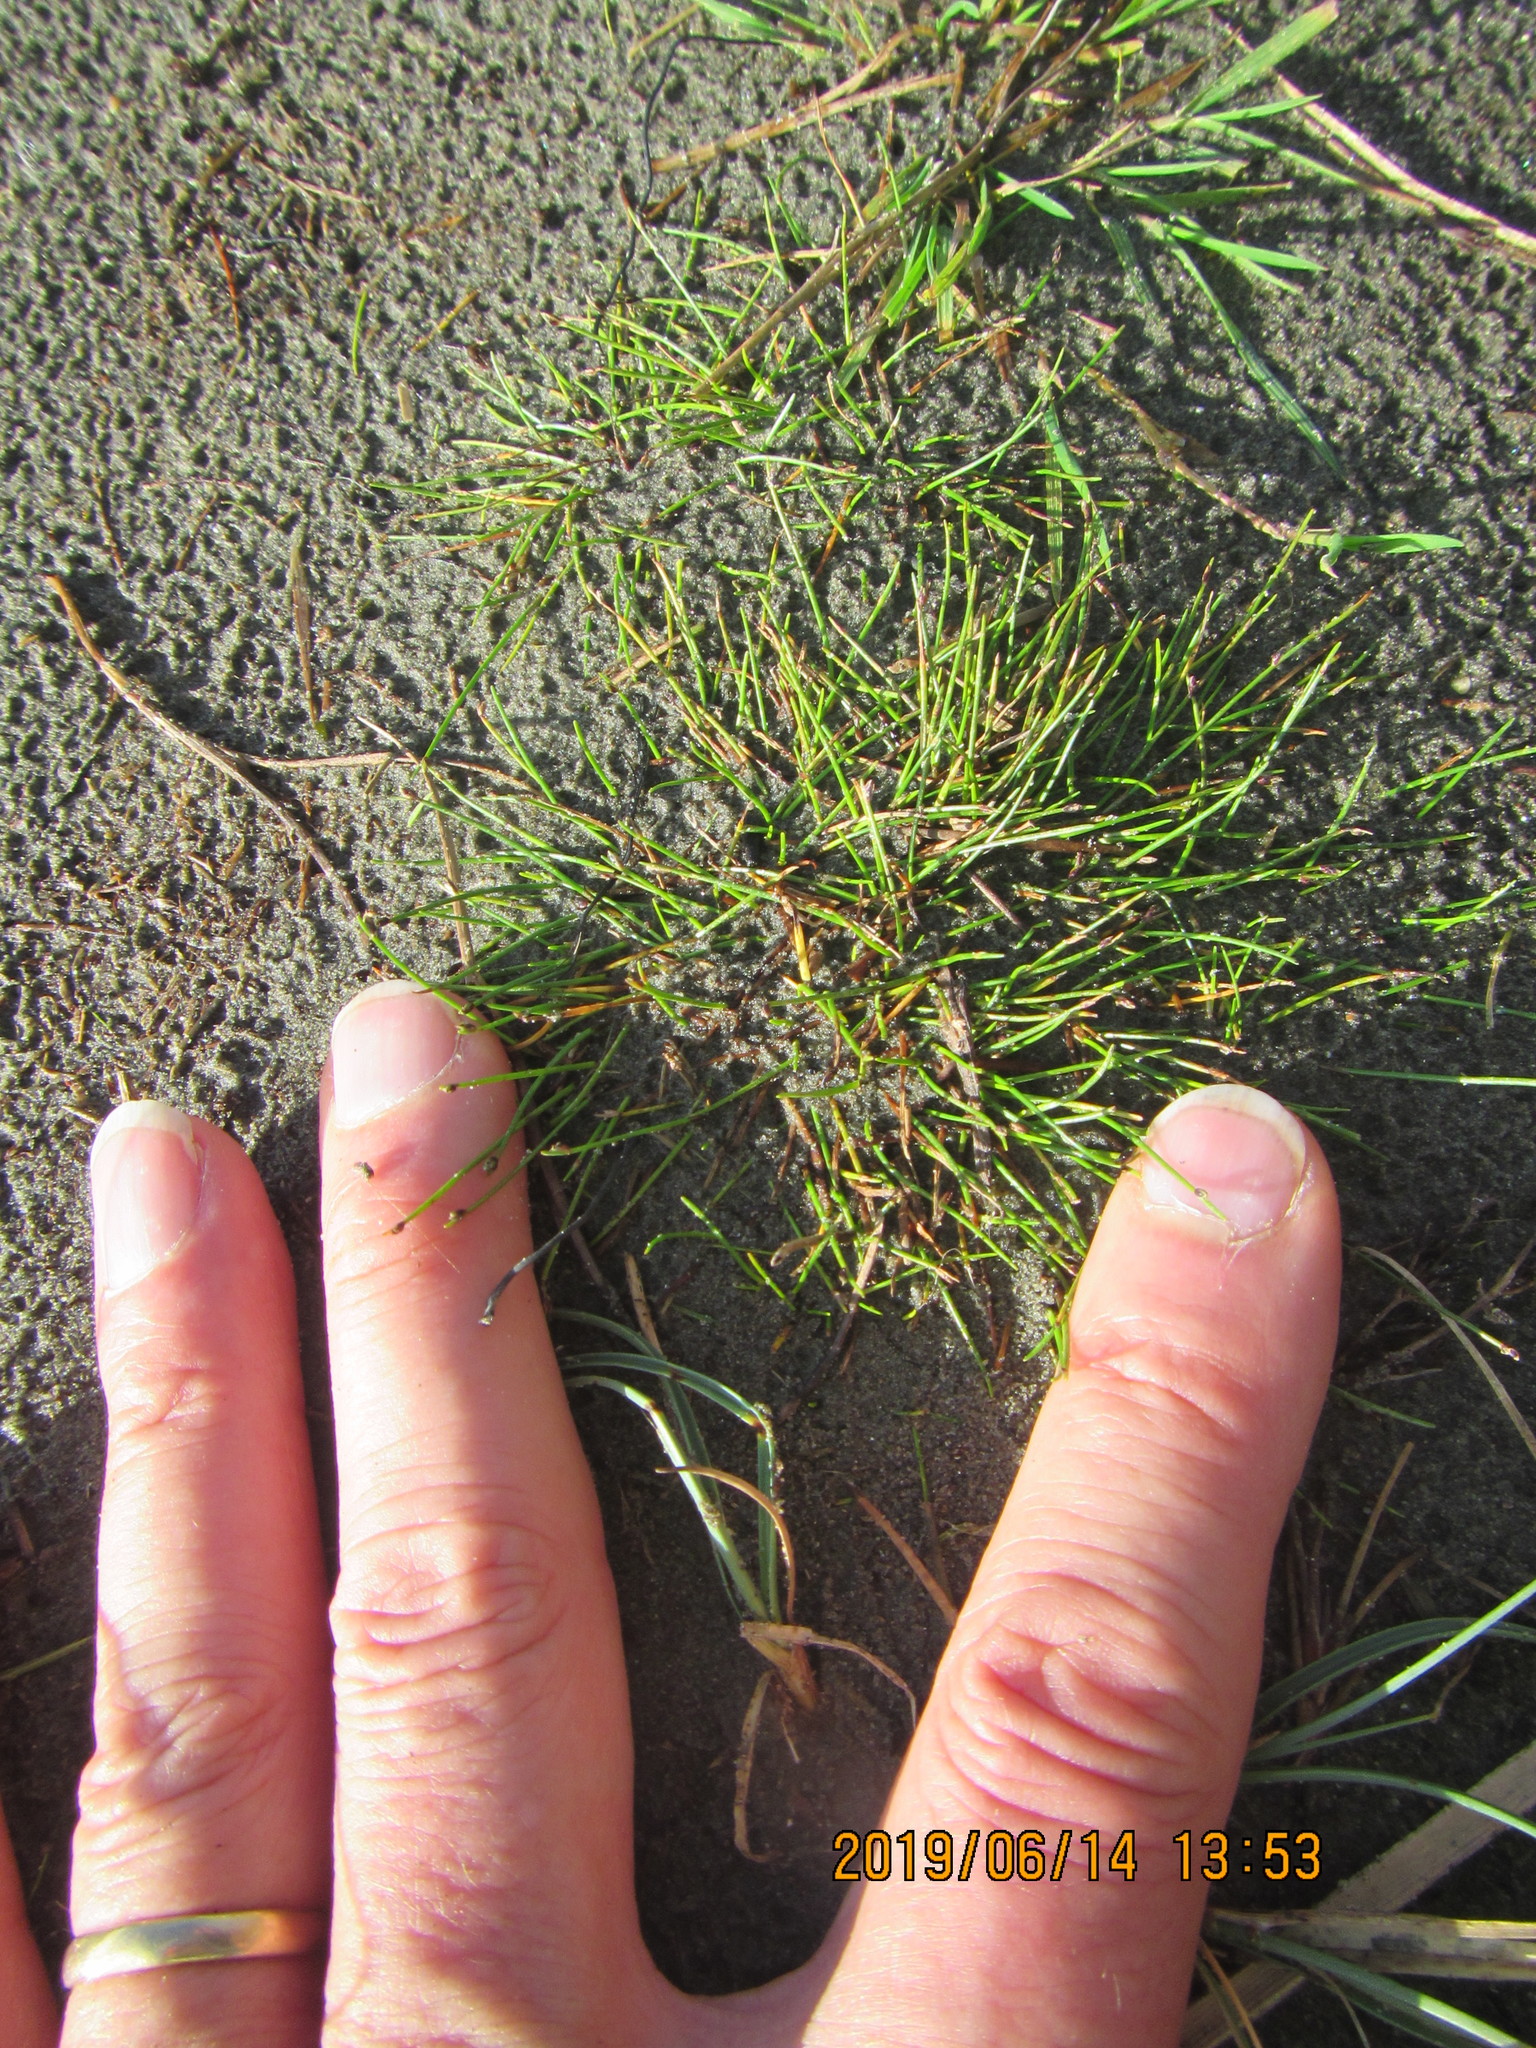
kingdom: Plantae
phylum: Tracheophyta
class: Liliopsida
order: Poales
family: Cyperaceae
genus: Isolepis
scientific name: Isolepis cernua
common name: Slender club-rush
